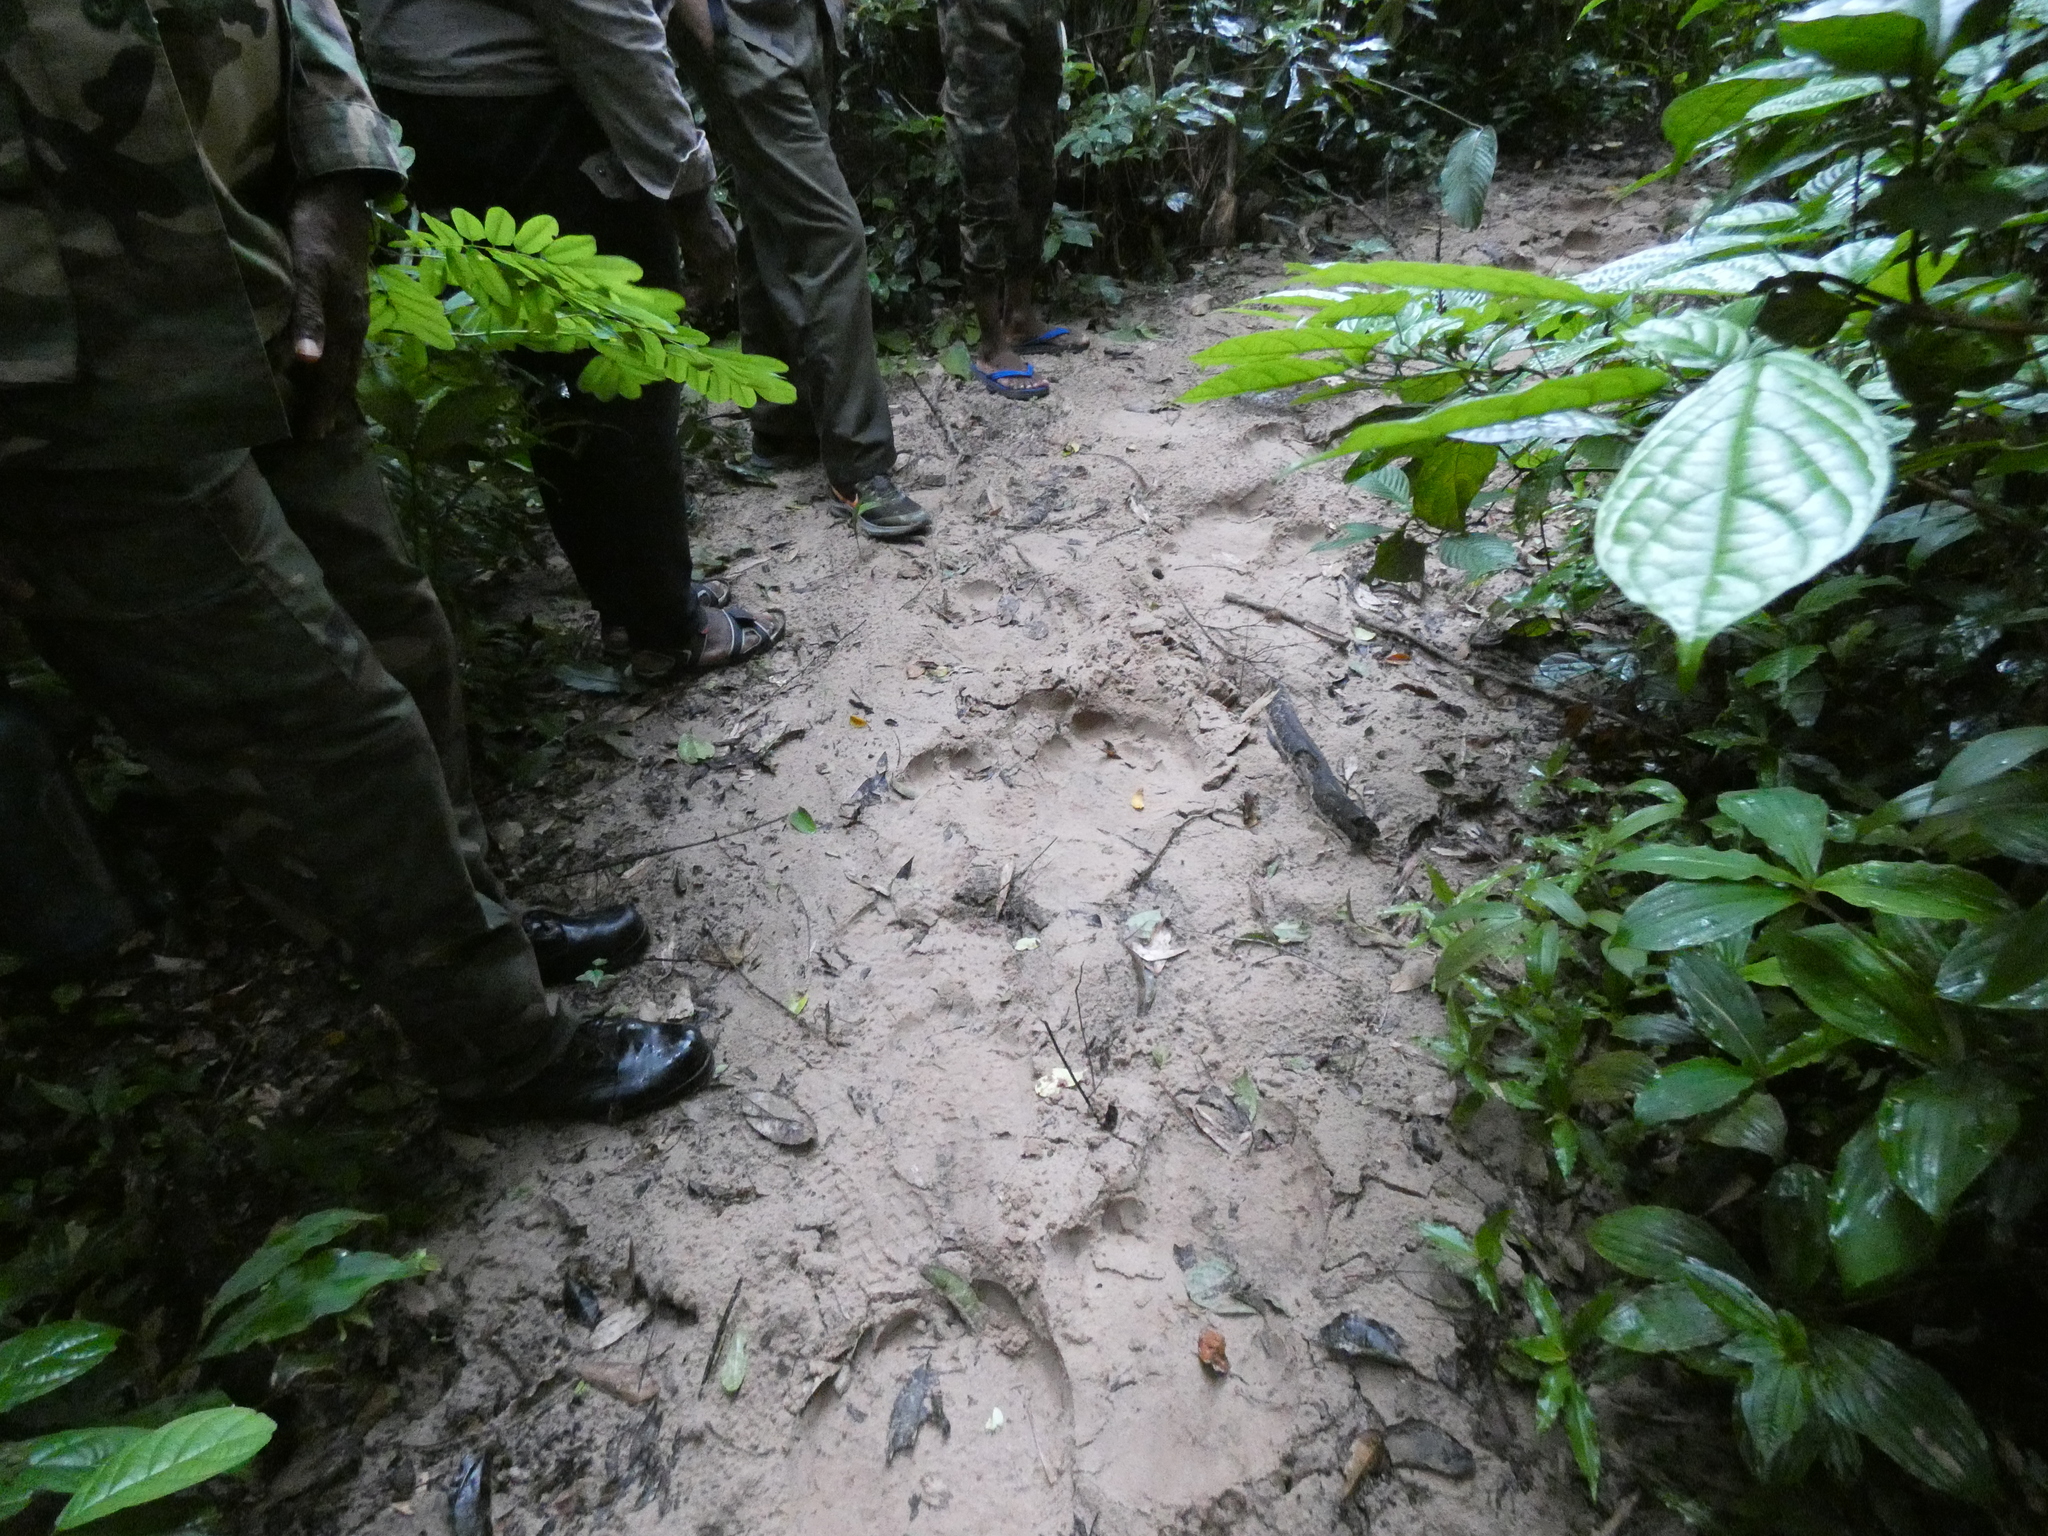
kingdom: Animalia
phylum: Chordata
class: Mammalia
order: Proboscidea
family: Elephantidae
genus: Loxodonta
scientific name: Loxodonta cyclotis
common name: African forest elephant
